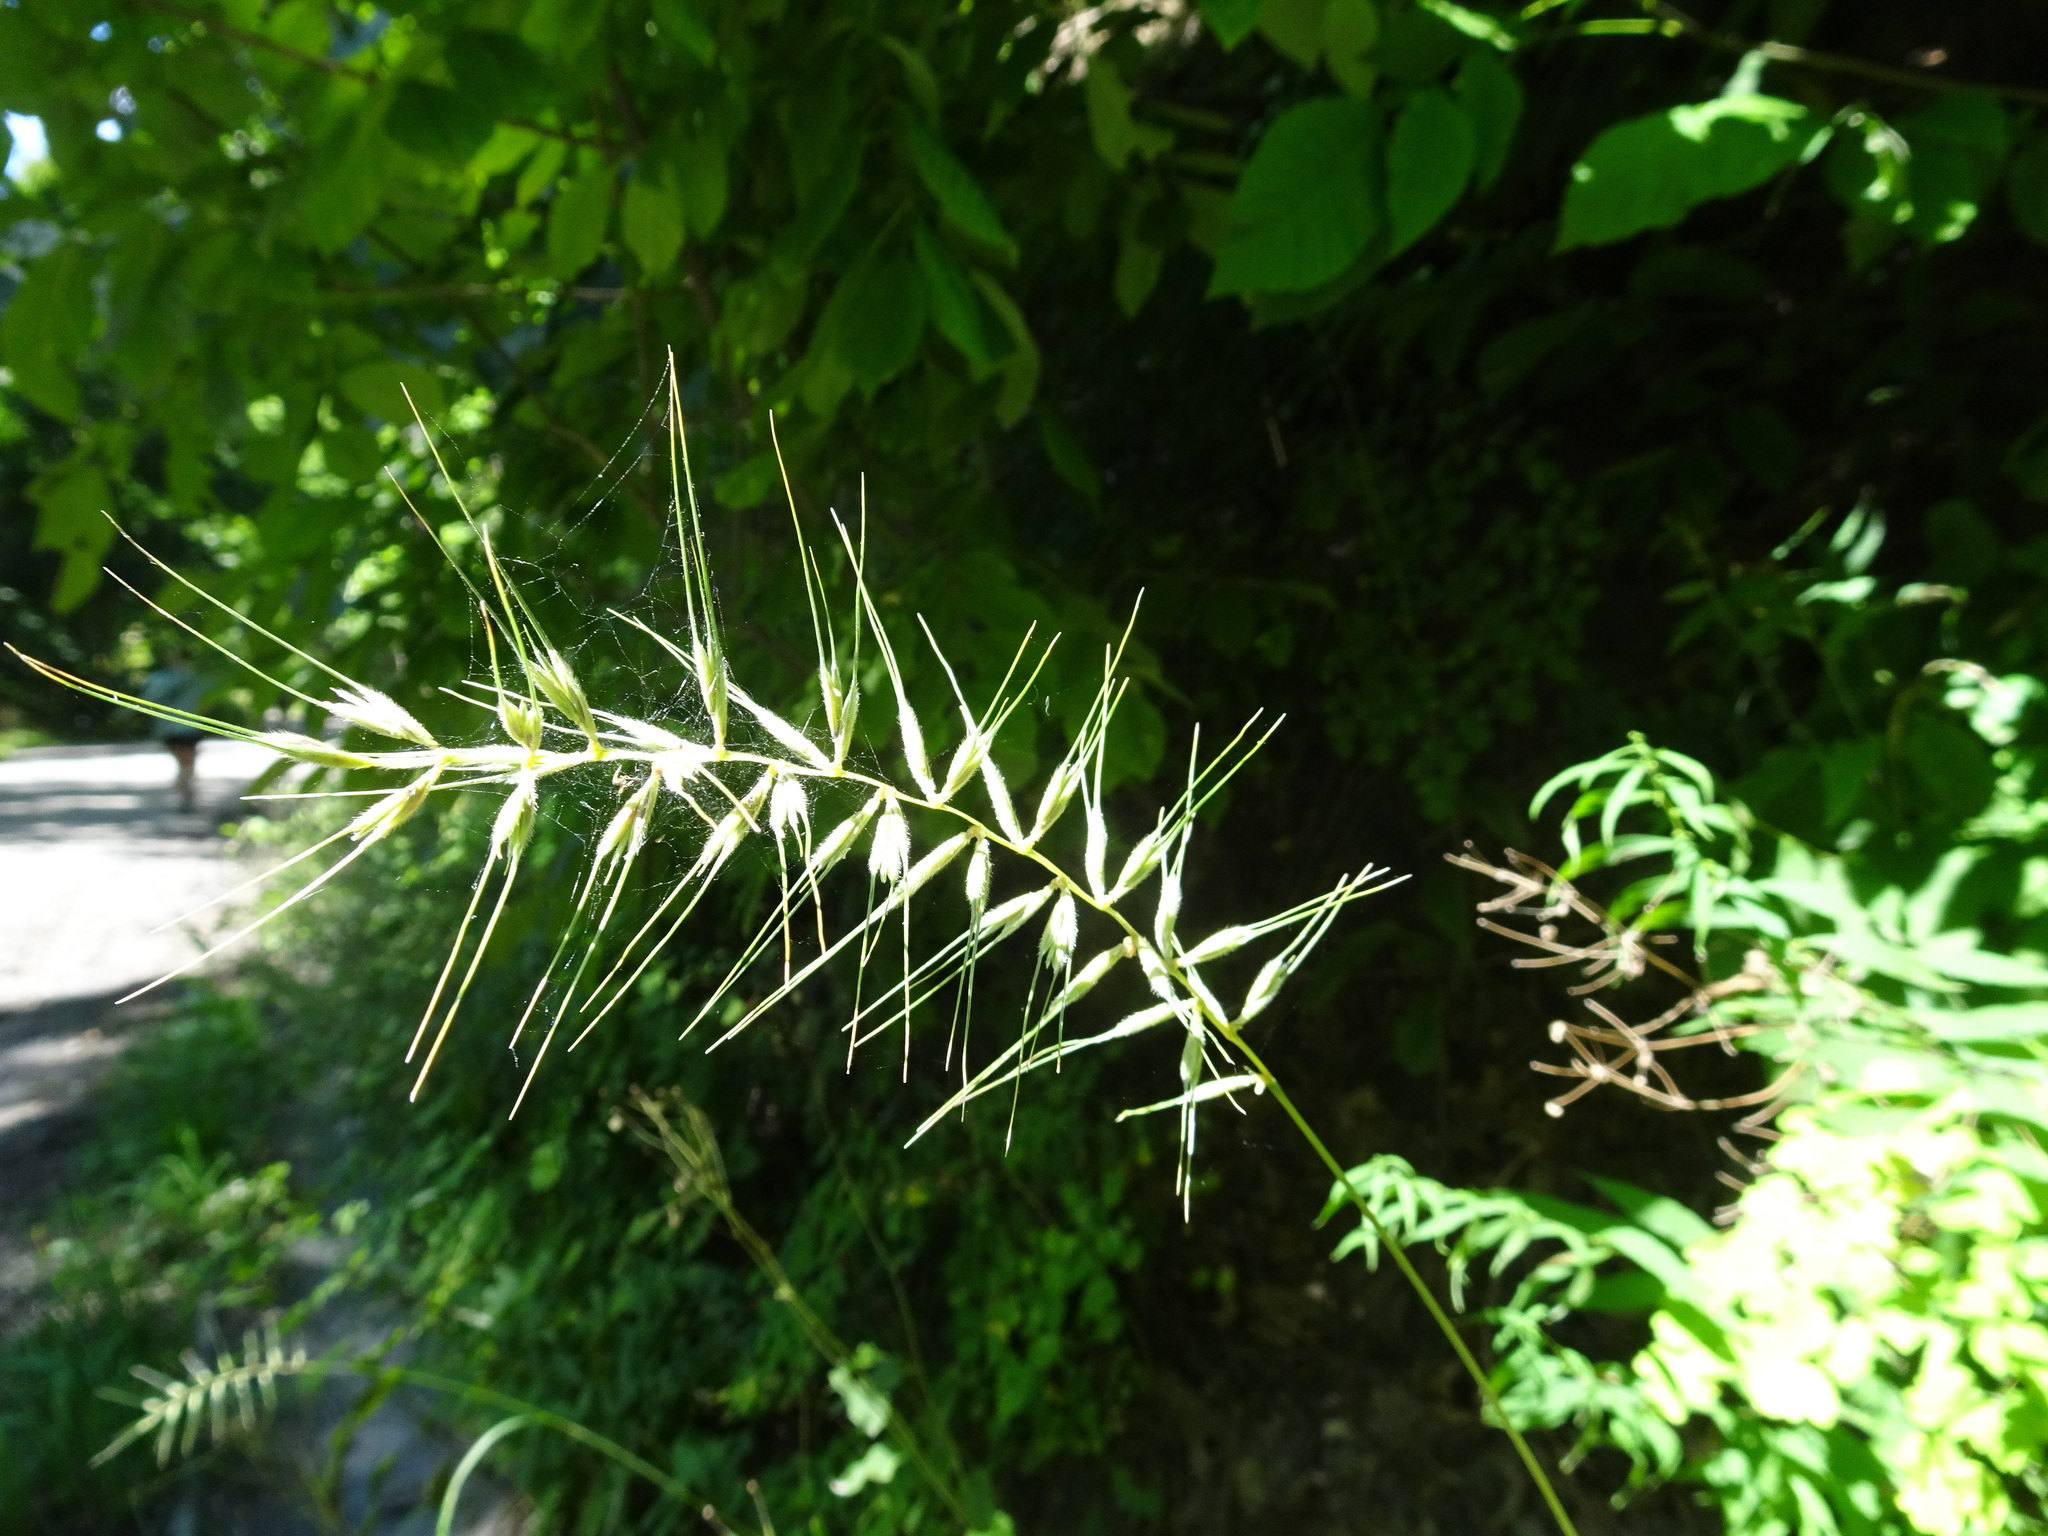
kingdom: Plantae
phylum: Tracheophyta
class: Liliopsida
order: Poales
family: Poaceae
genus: Elymus
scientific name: Elymus hystrix
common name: Bottlebrush grass
